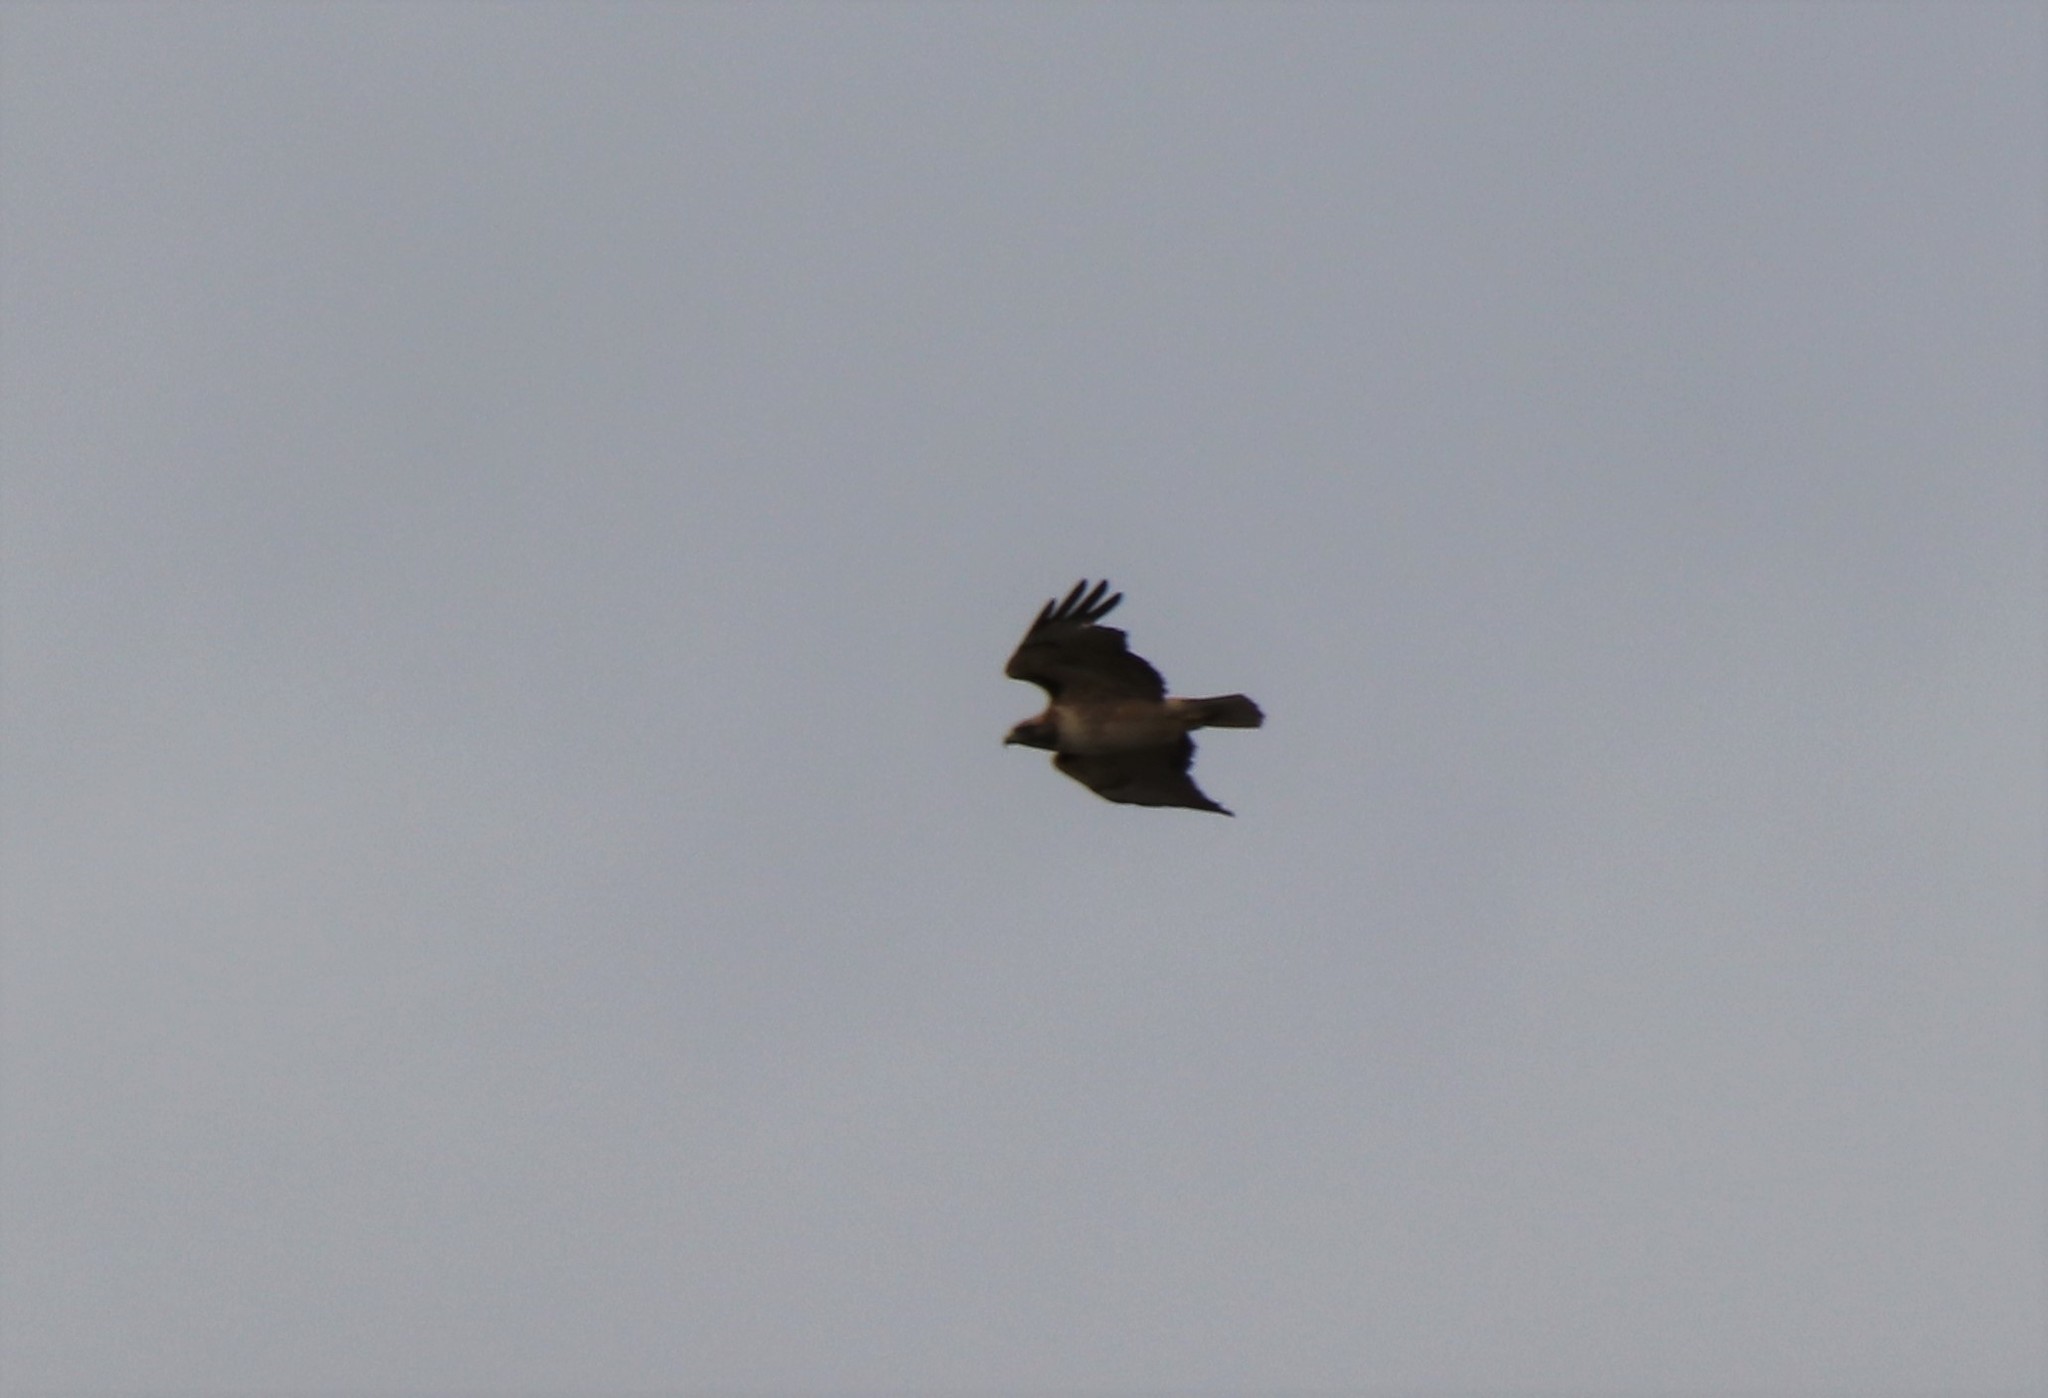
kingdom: Animalia
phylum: Chordata
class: Aves
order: Accipitriformes
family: Accipitridae
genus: Buteo
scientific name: Buteo jamaicensis
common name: Red-tailed hawk
